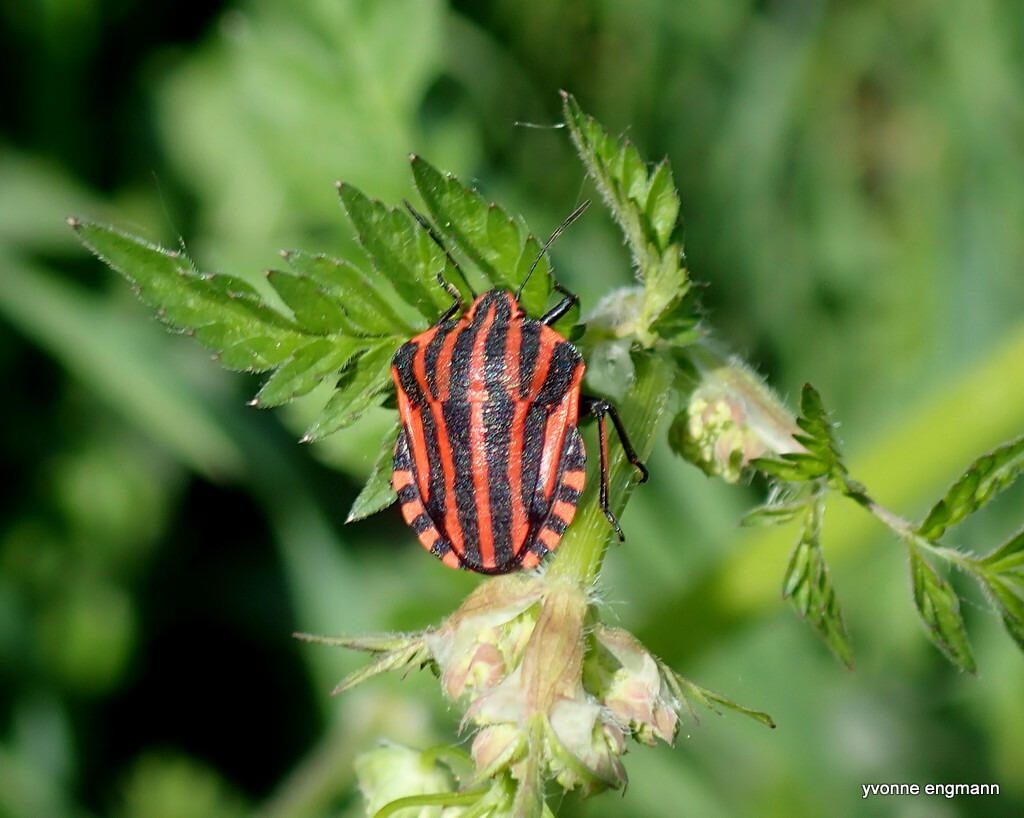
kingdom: Animalia
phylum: Arthropoda
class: Insecta
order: Hemiptera
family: Pentatomidae
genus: Graphosoma
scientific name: Graphosoma italicum
